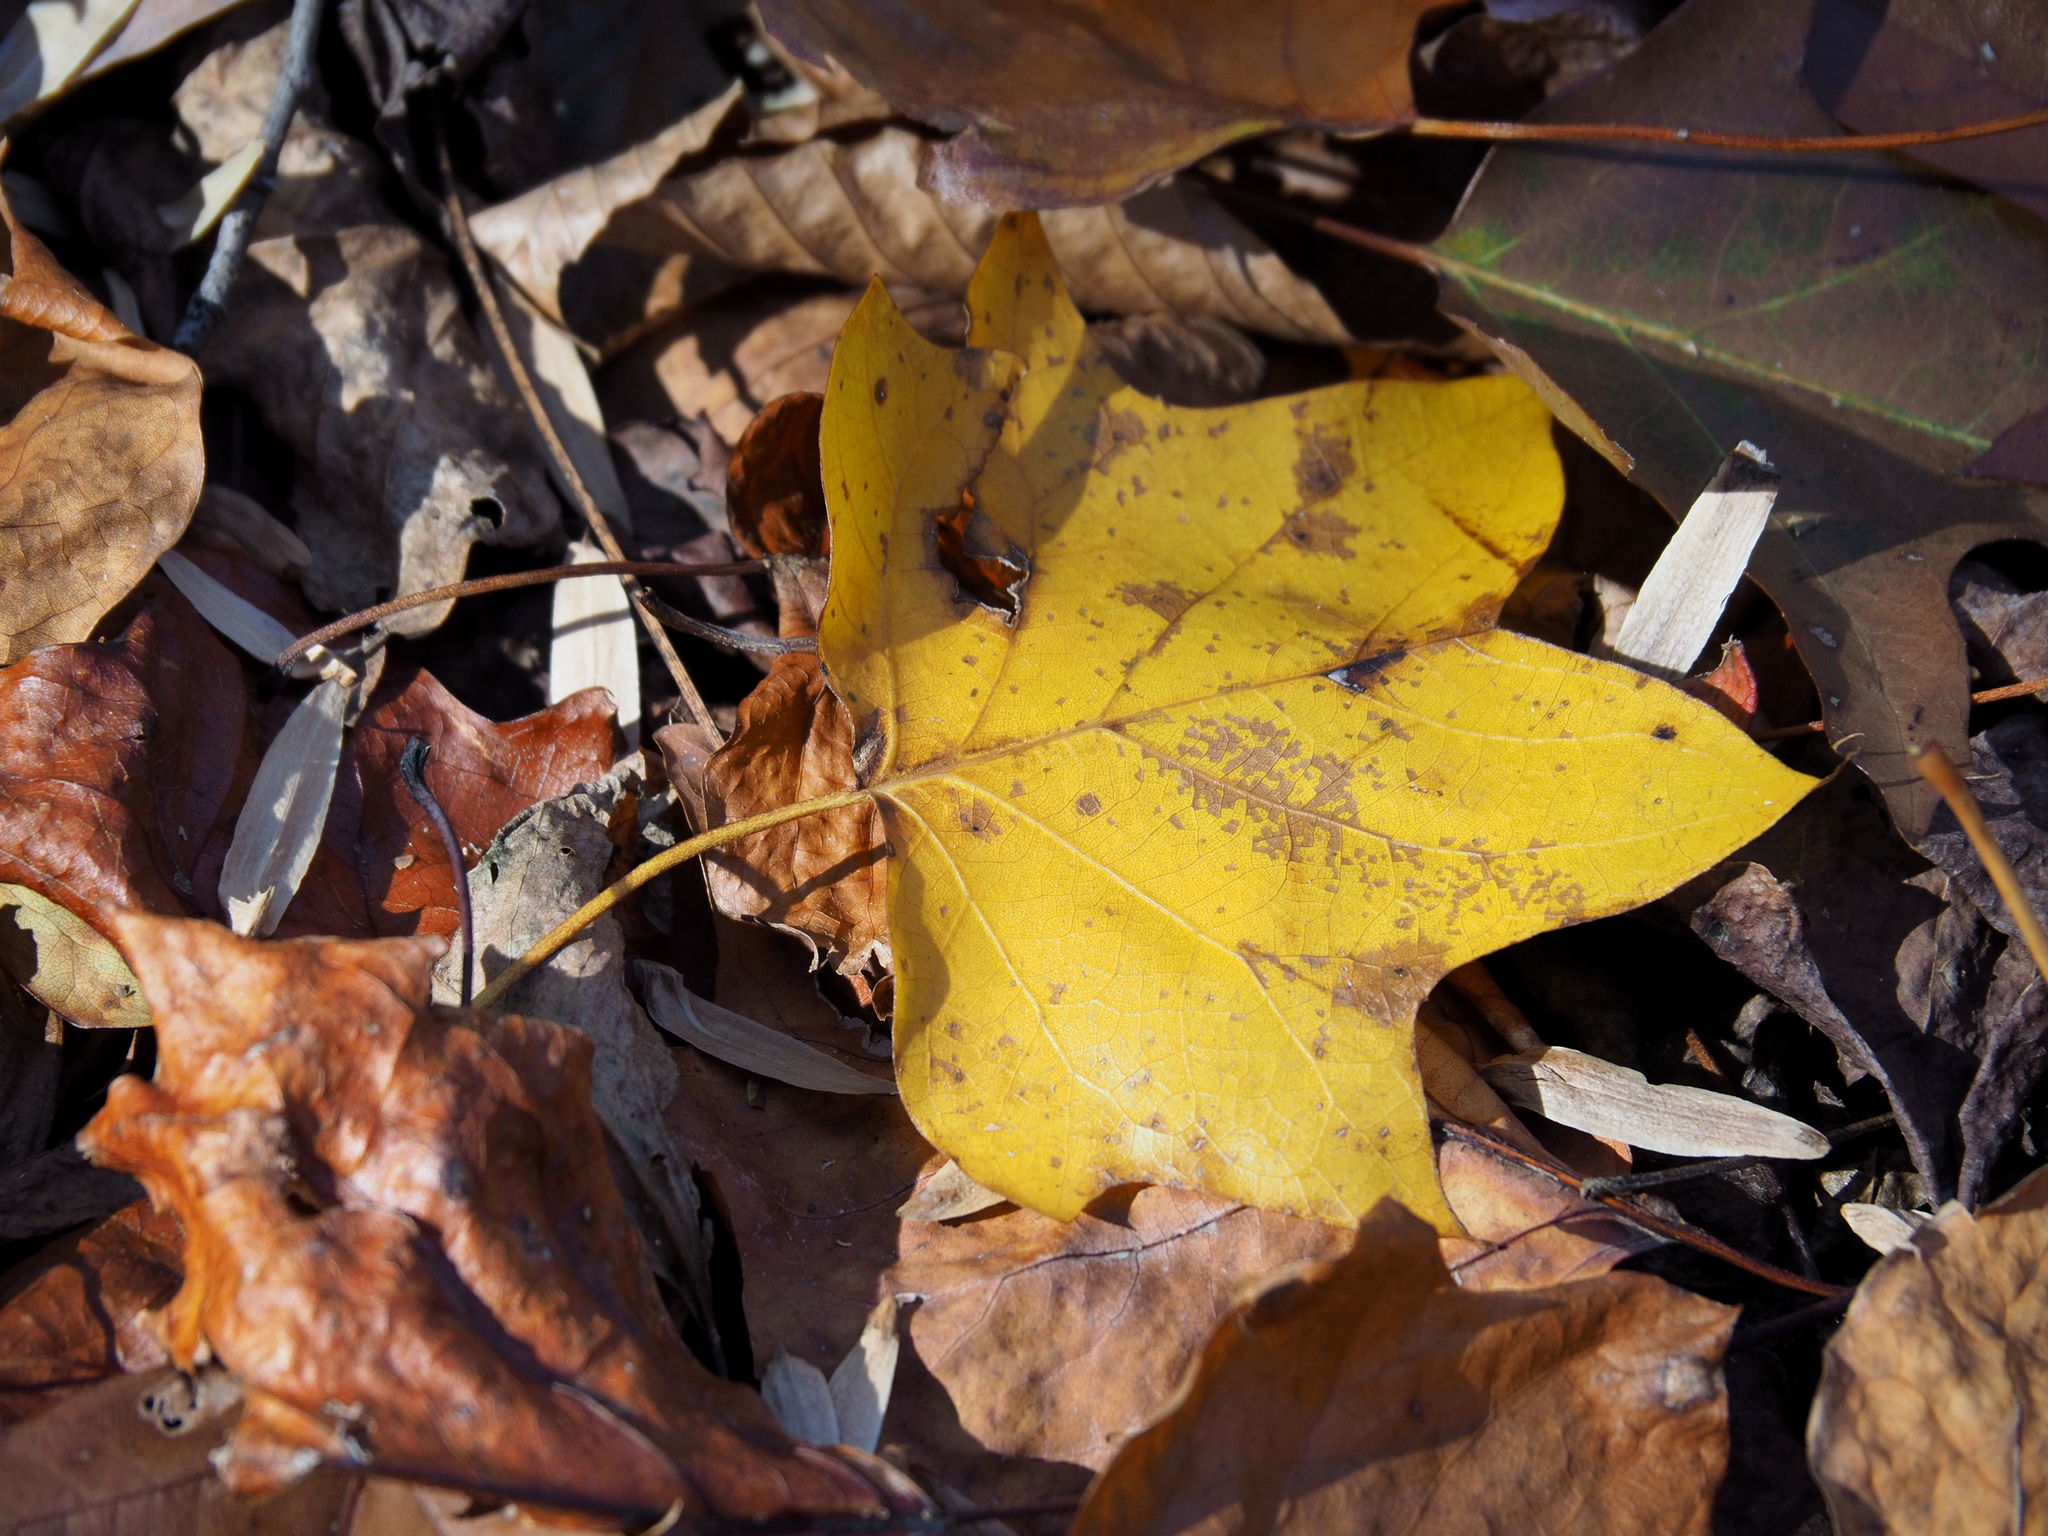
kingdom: Plantae
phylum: Tracheophyta
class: Magnoliopsida
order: Magnoliales
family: Magnoliaceae
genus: Liriodendron
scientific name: Liriodendron tulipifera
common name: Tulip tree
